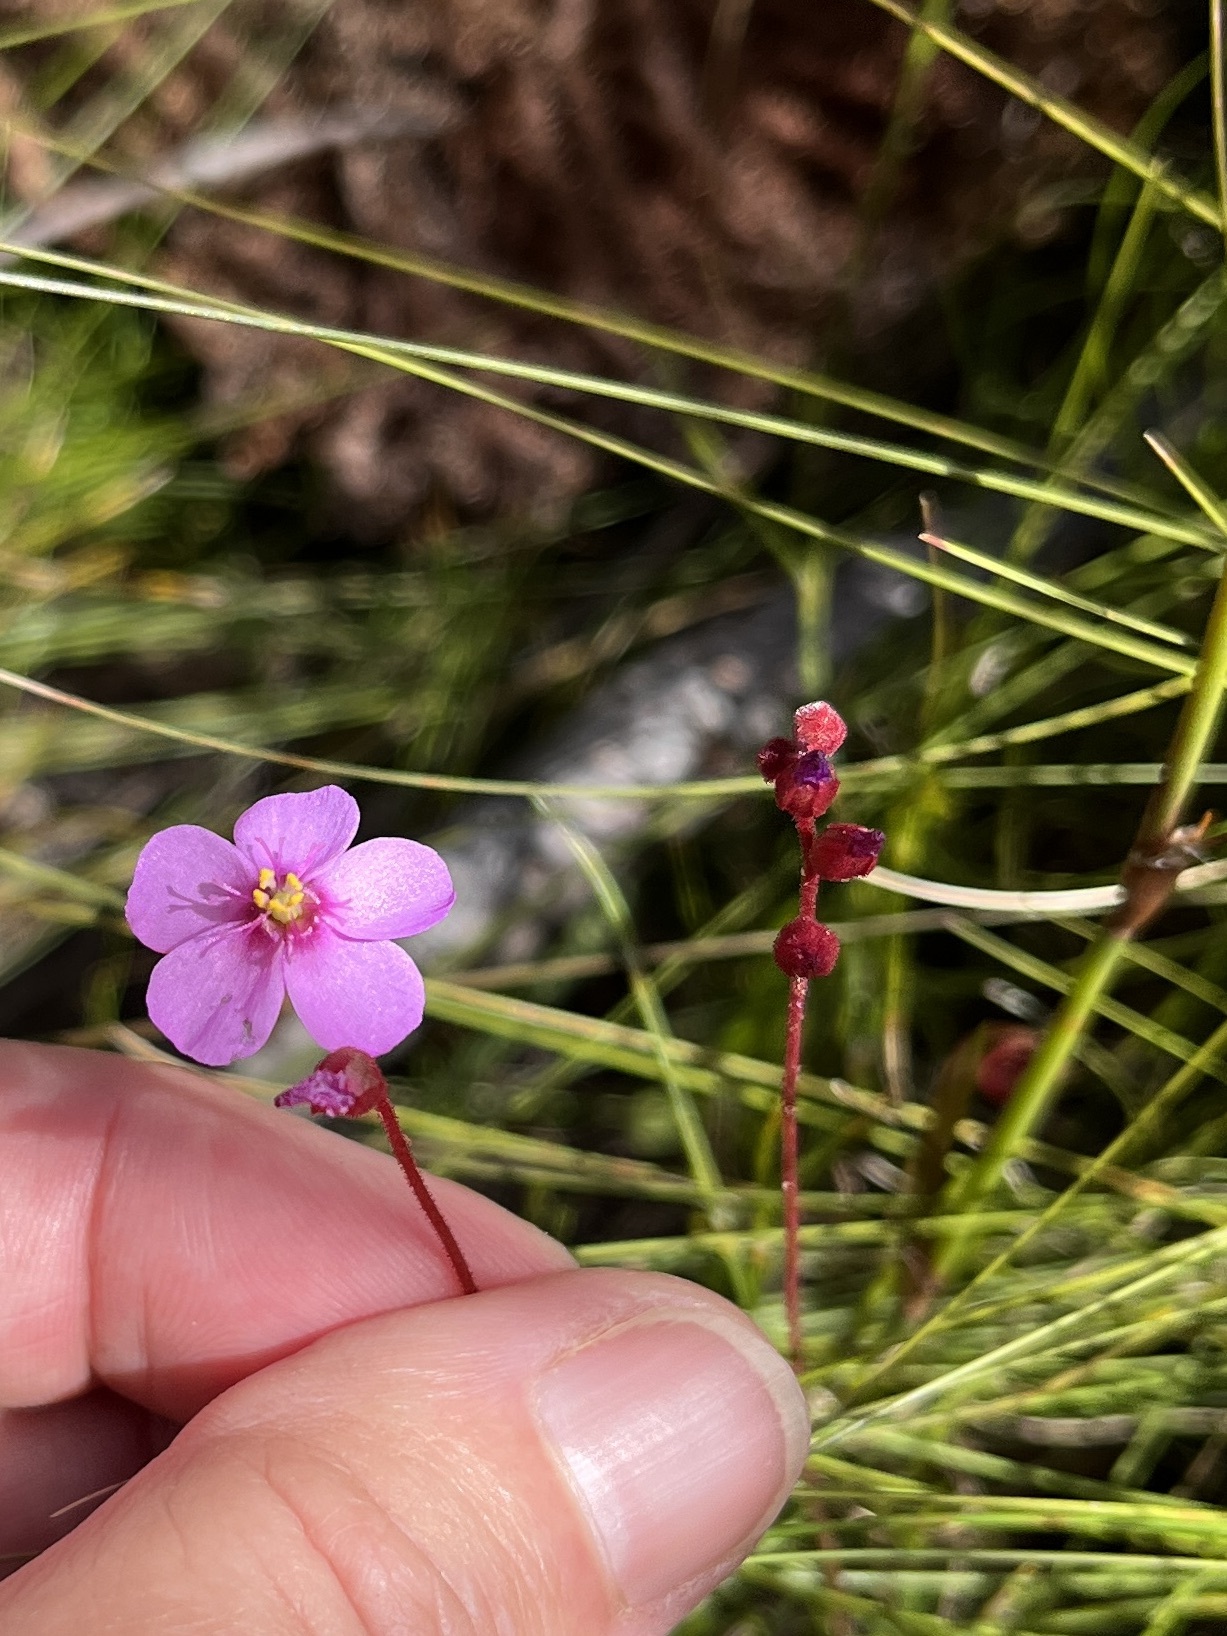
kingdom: Plantae
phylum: Tracheophyta
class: Magnoliopsida
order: Caryophyllales
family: Droseraceae
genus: Drosera
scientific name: Drosera aliciae
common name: Alice sundew
